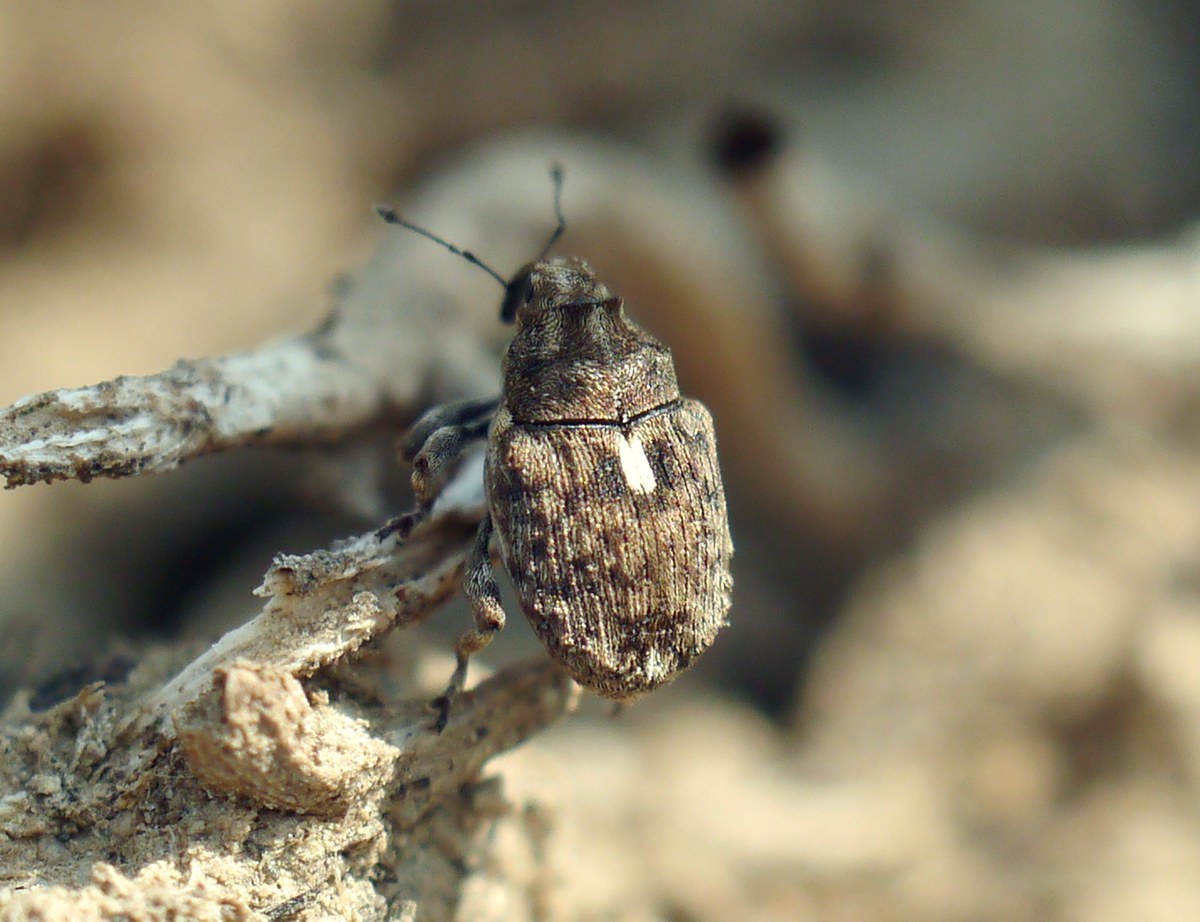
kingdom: Animalia
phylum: Arthropoda
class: Insecta
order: Coleoptera
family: Curculionidae
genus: Ethelcus
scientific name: Ethelcus denticulatus
